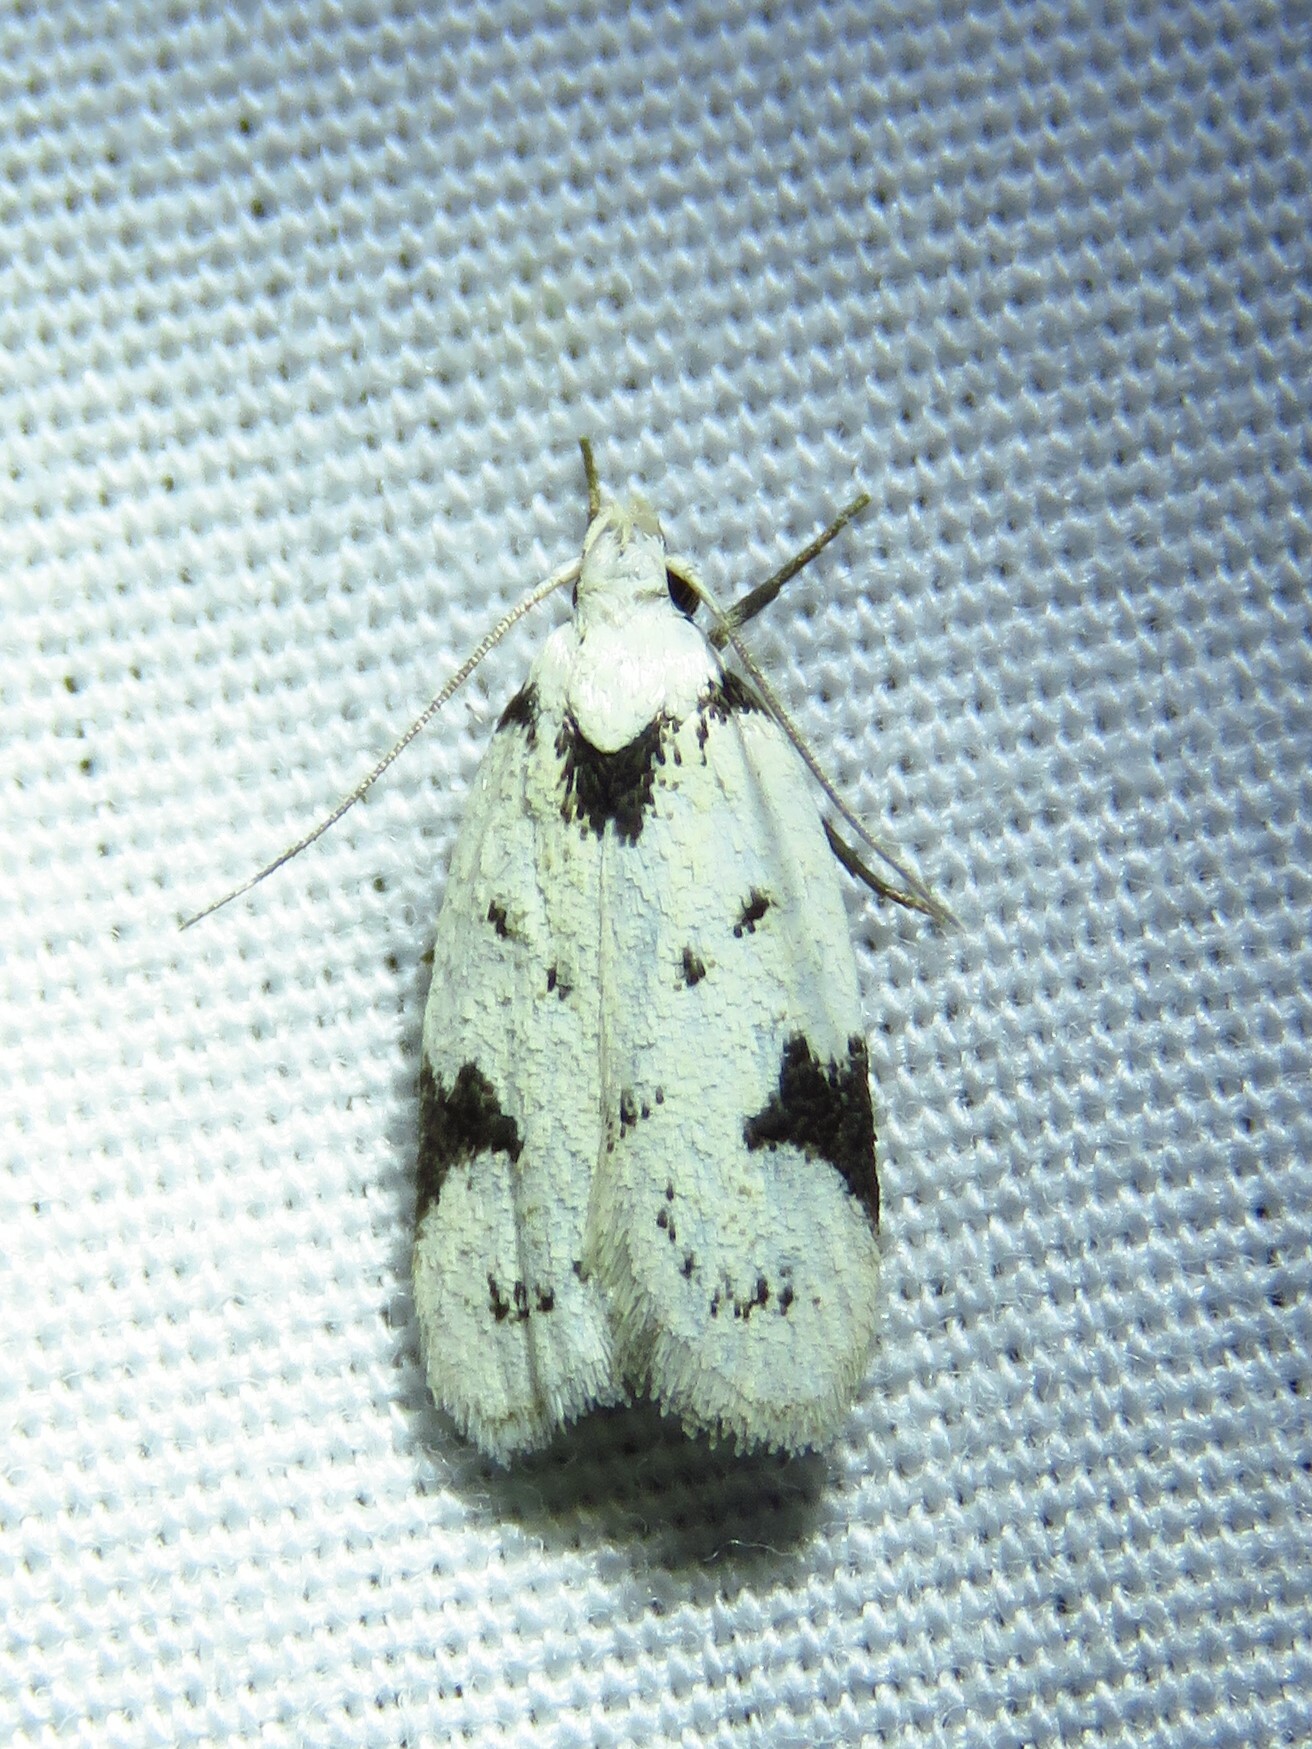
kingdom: Animalia
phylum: Arthropoda
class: Insecta
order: Lepidoptera
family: Oecophoridae
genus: Inga
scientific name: Inga sparsiciliella
